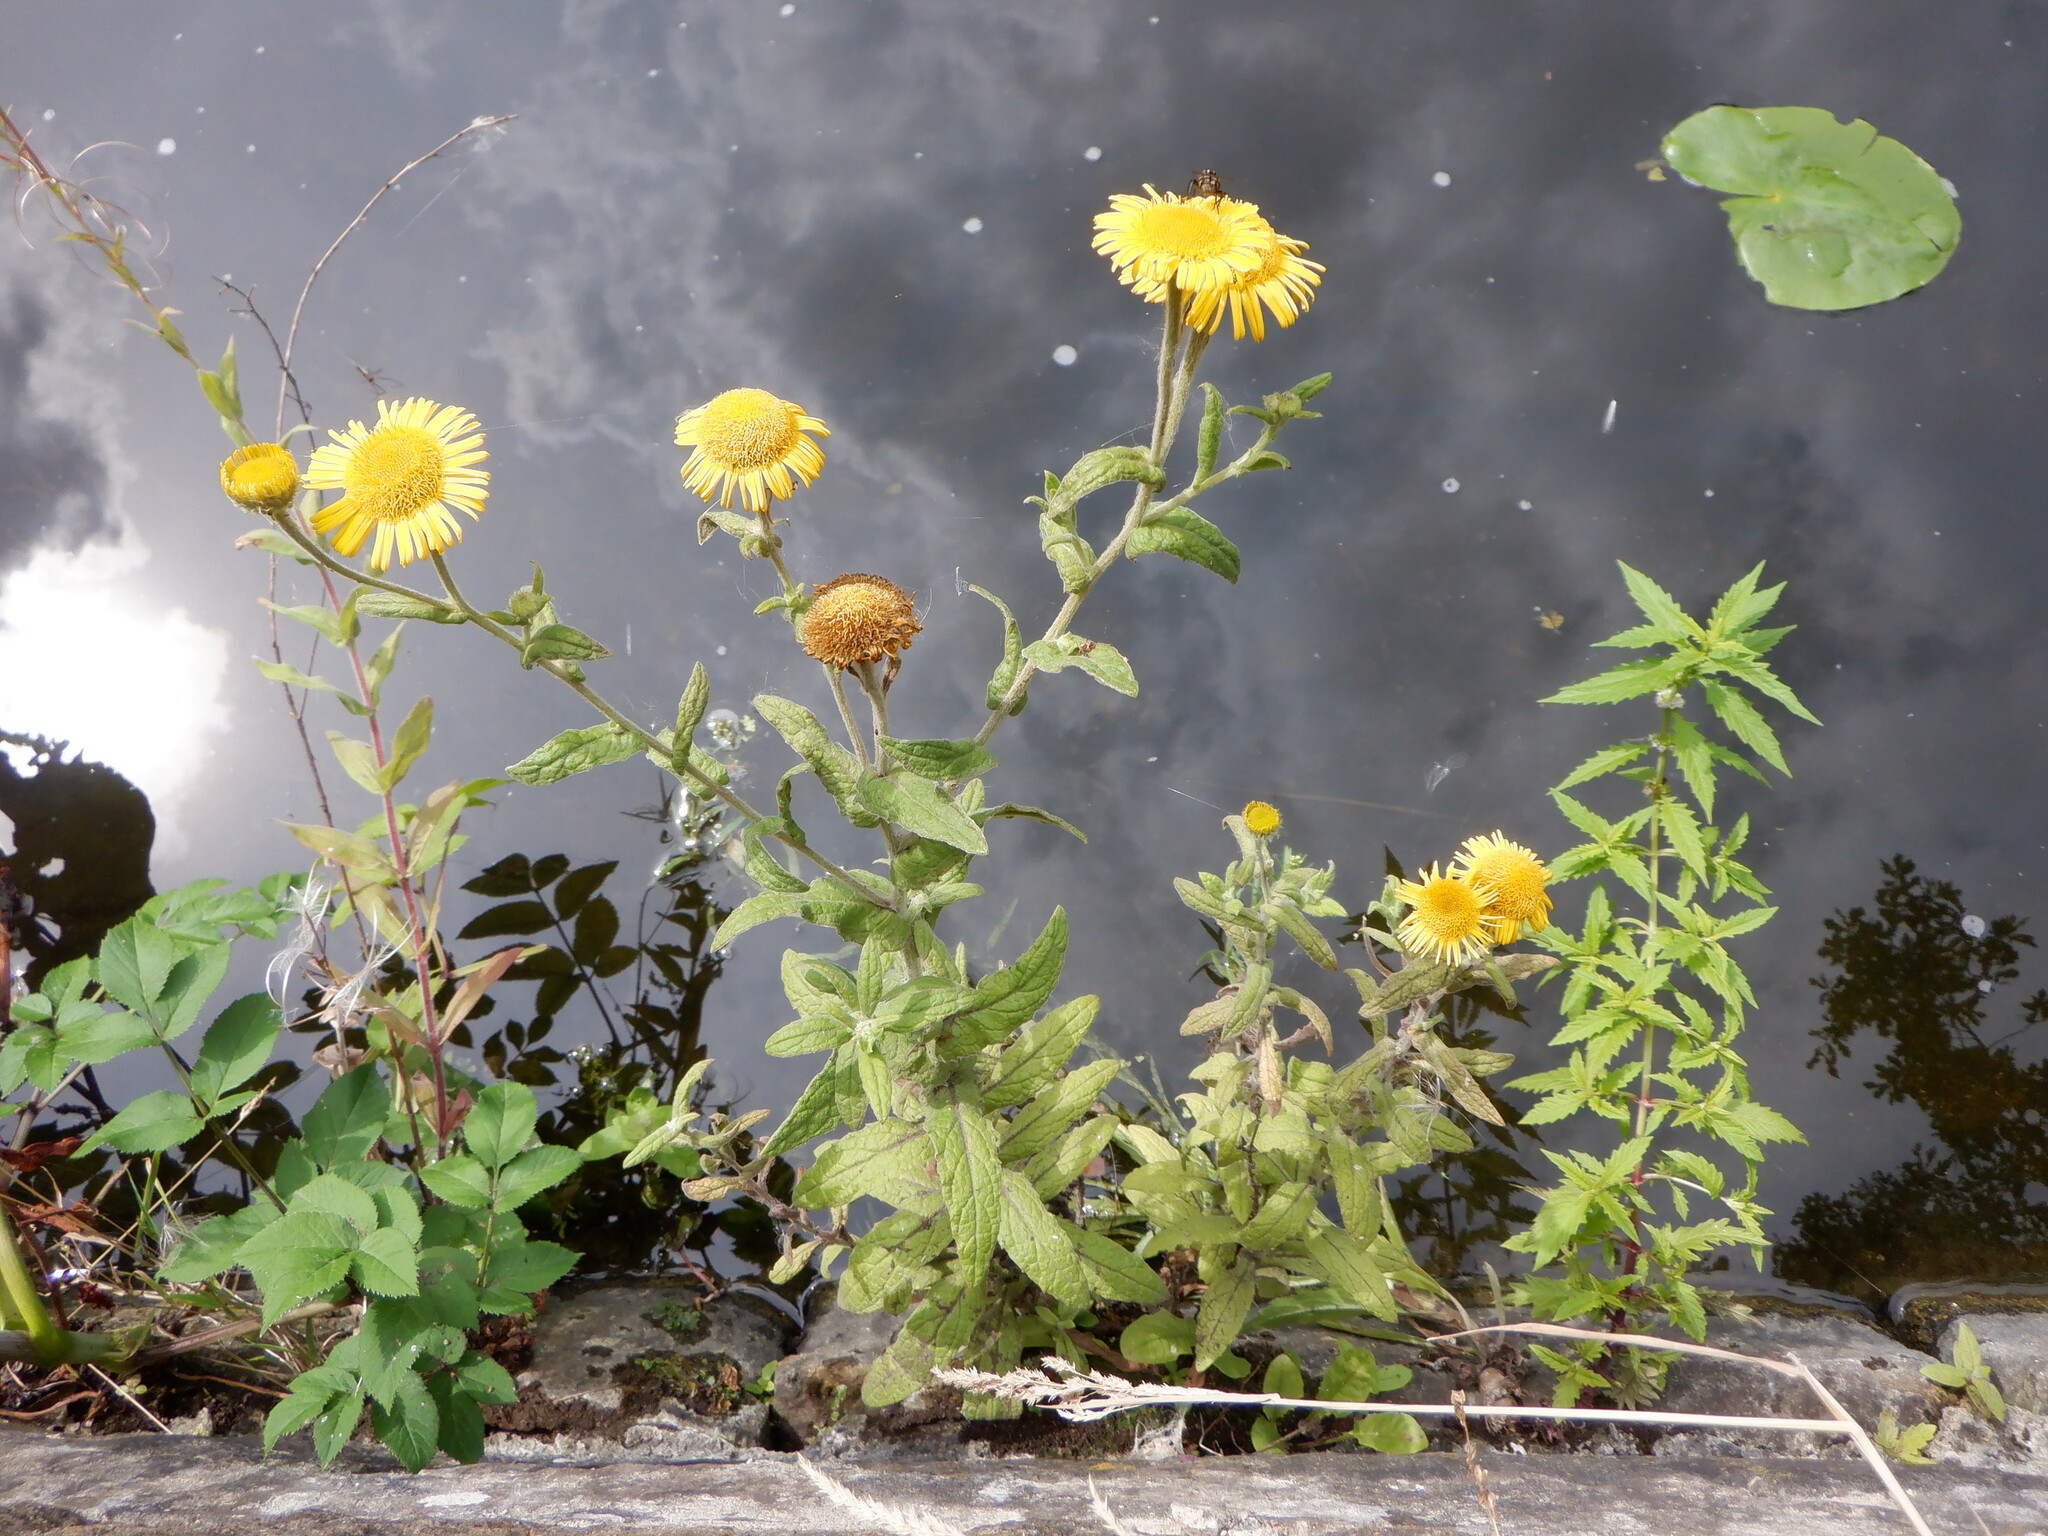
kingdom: Plantae
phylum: Tracheophyta
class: Magnoliopsida
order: Asterales
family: Asteraceae
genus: Pulicaria
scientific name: Pulicaria dysenterica
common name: Common fleabane
